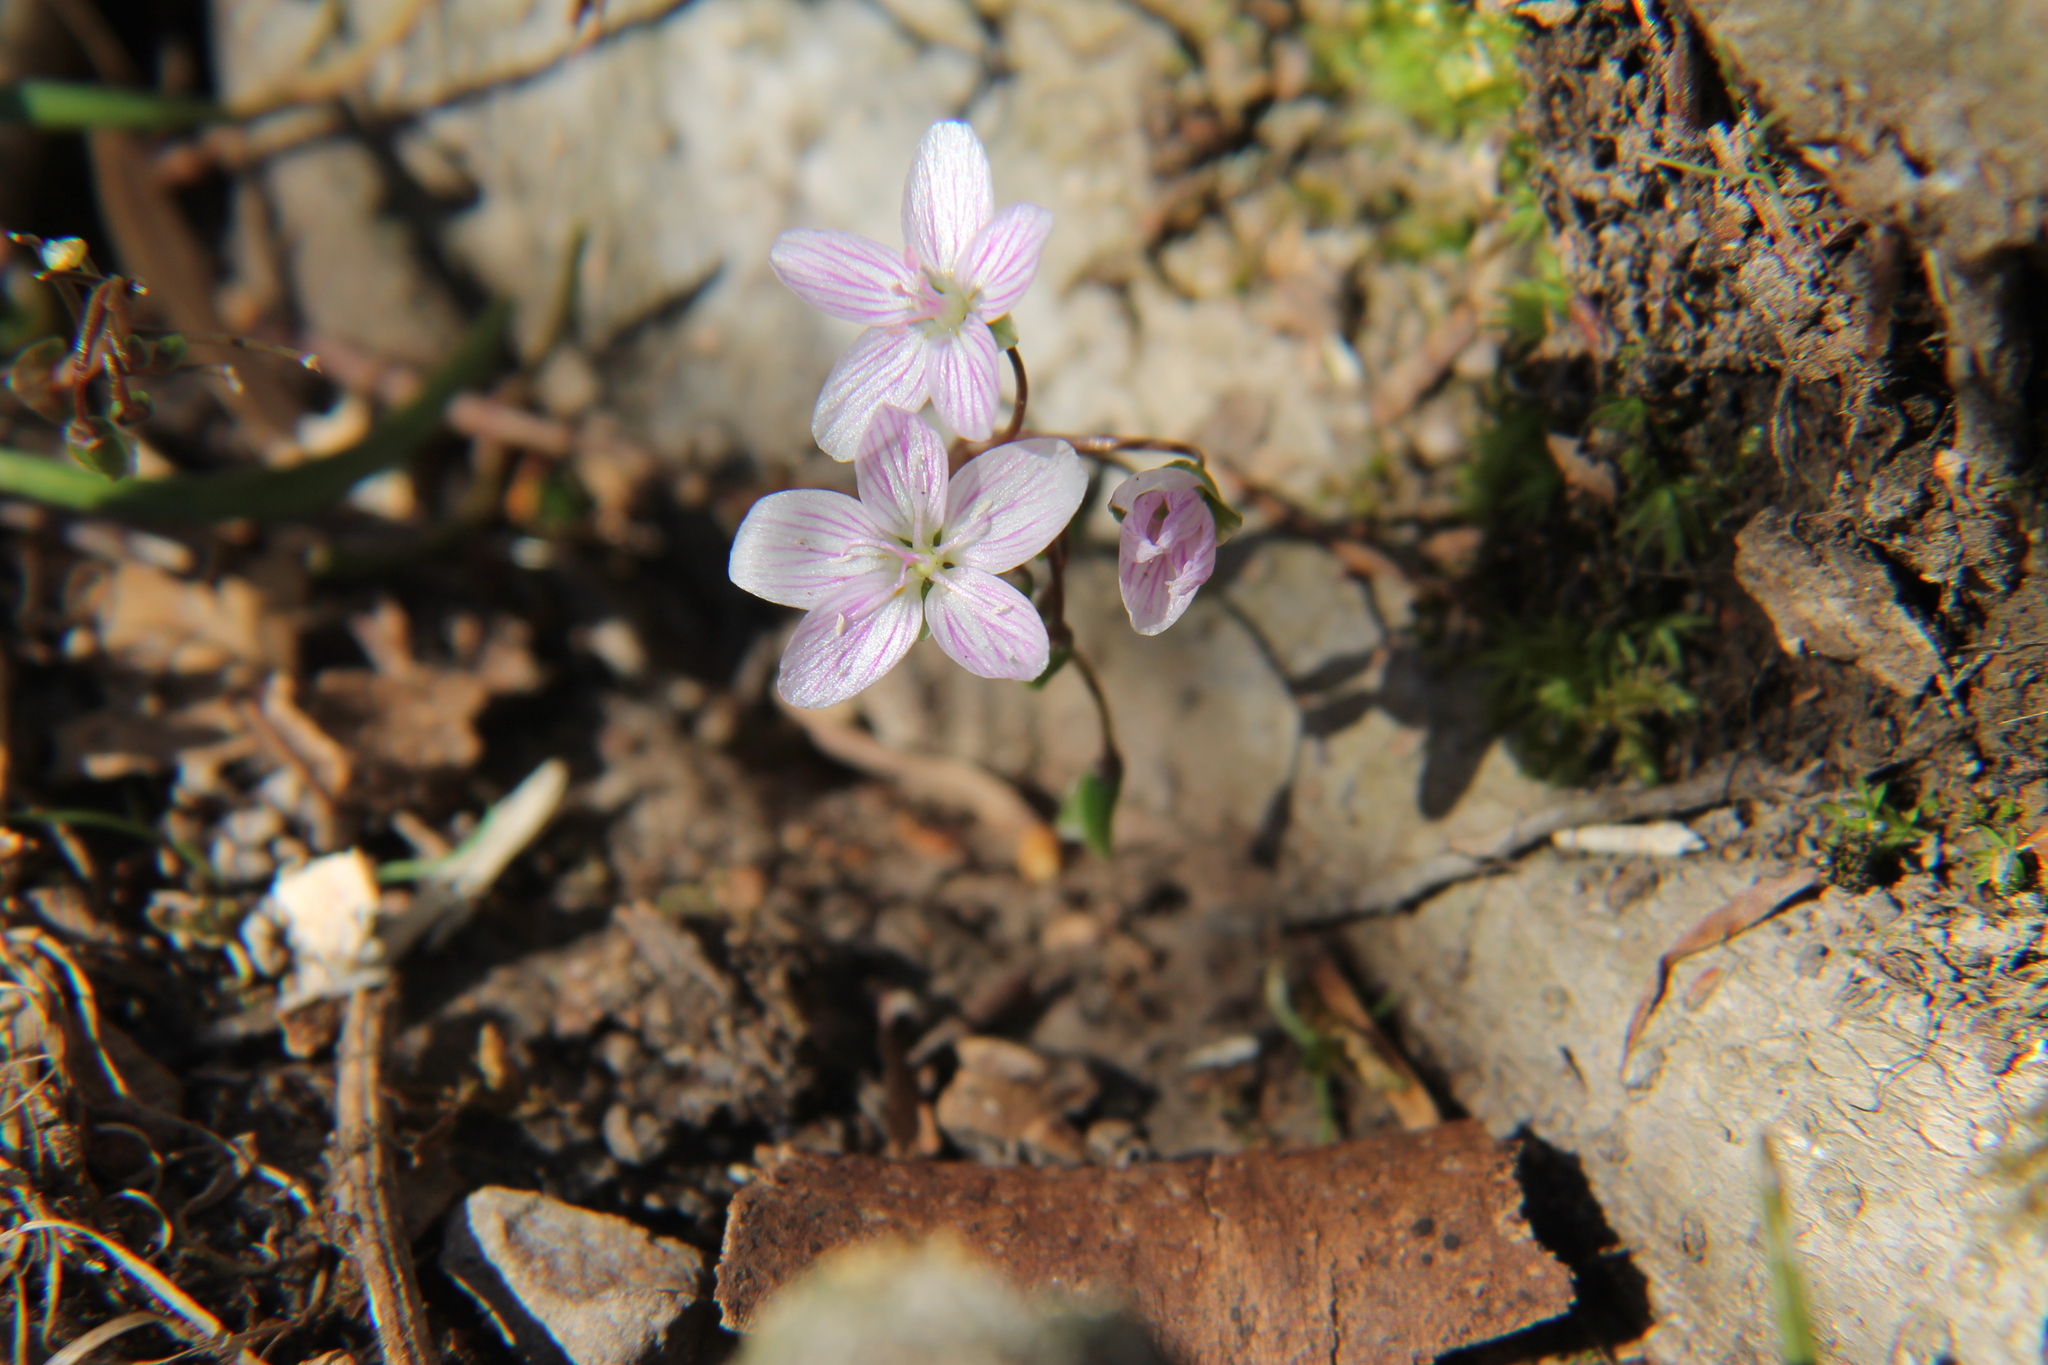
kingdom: Plantae
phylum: Tracheophyta
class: Magnoliopsida
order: Caryophyllales
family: Montiaceae
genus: Claytonia
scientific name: Claytonia virginica
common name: Virginia springbeauty
